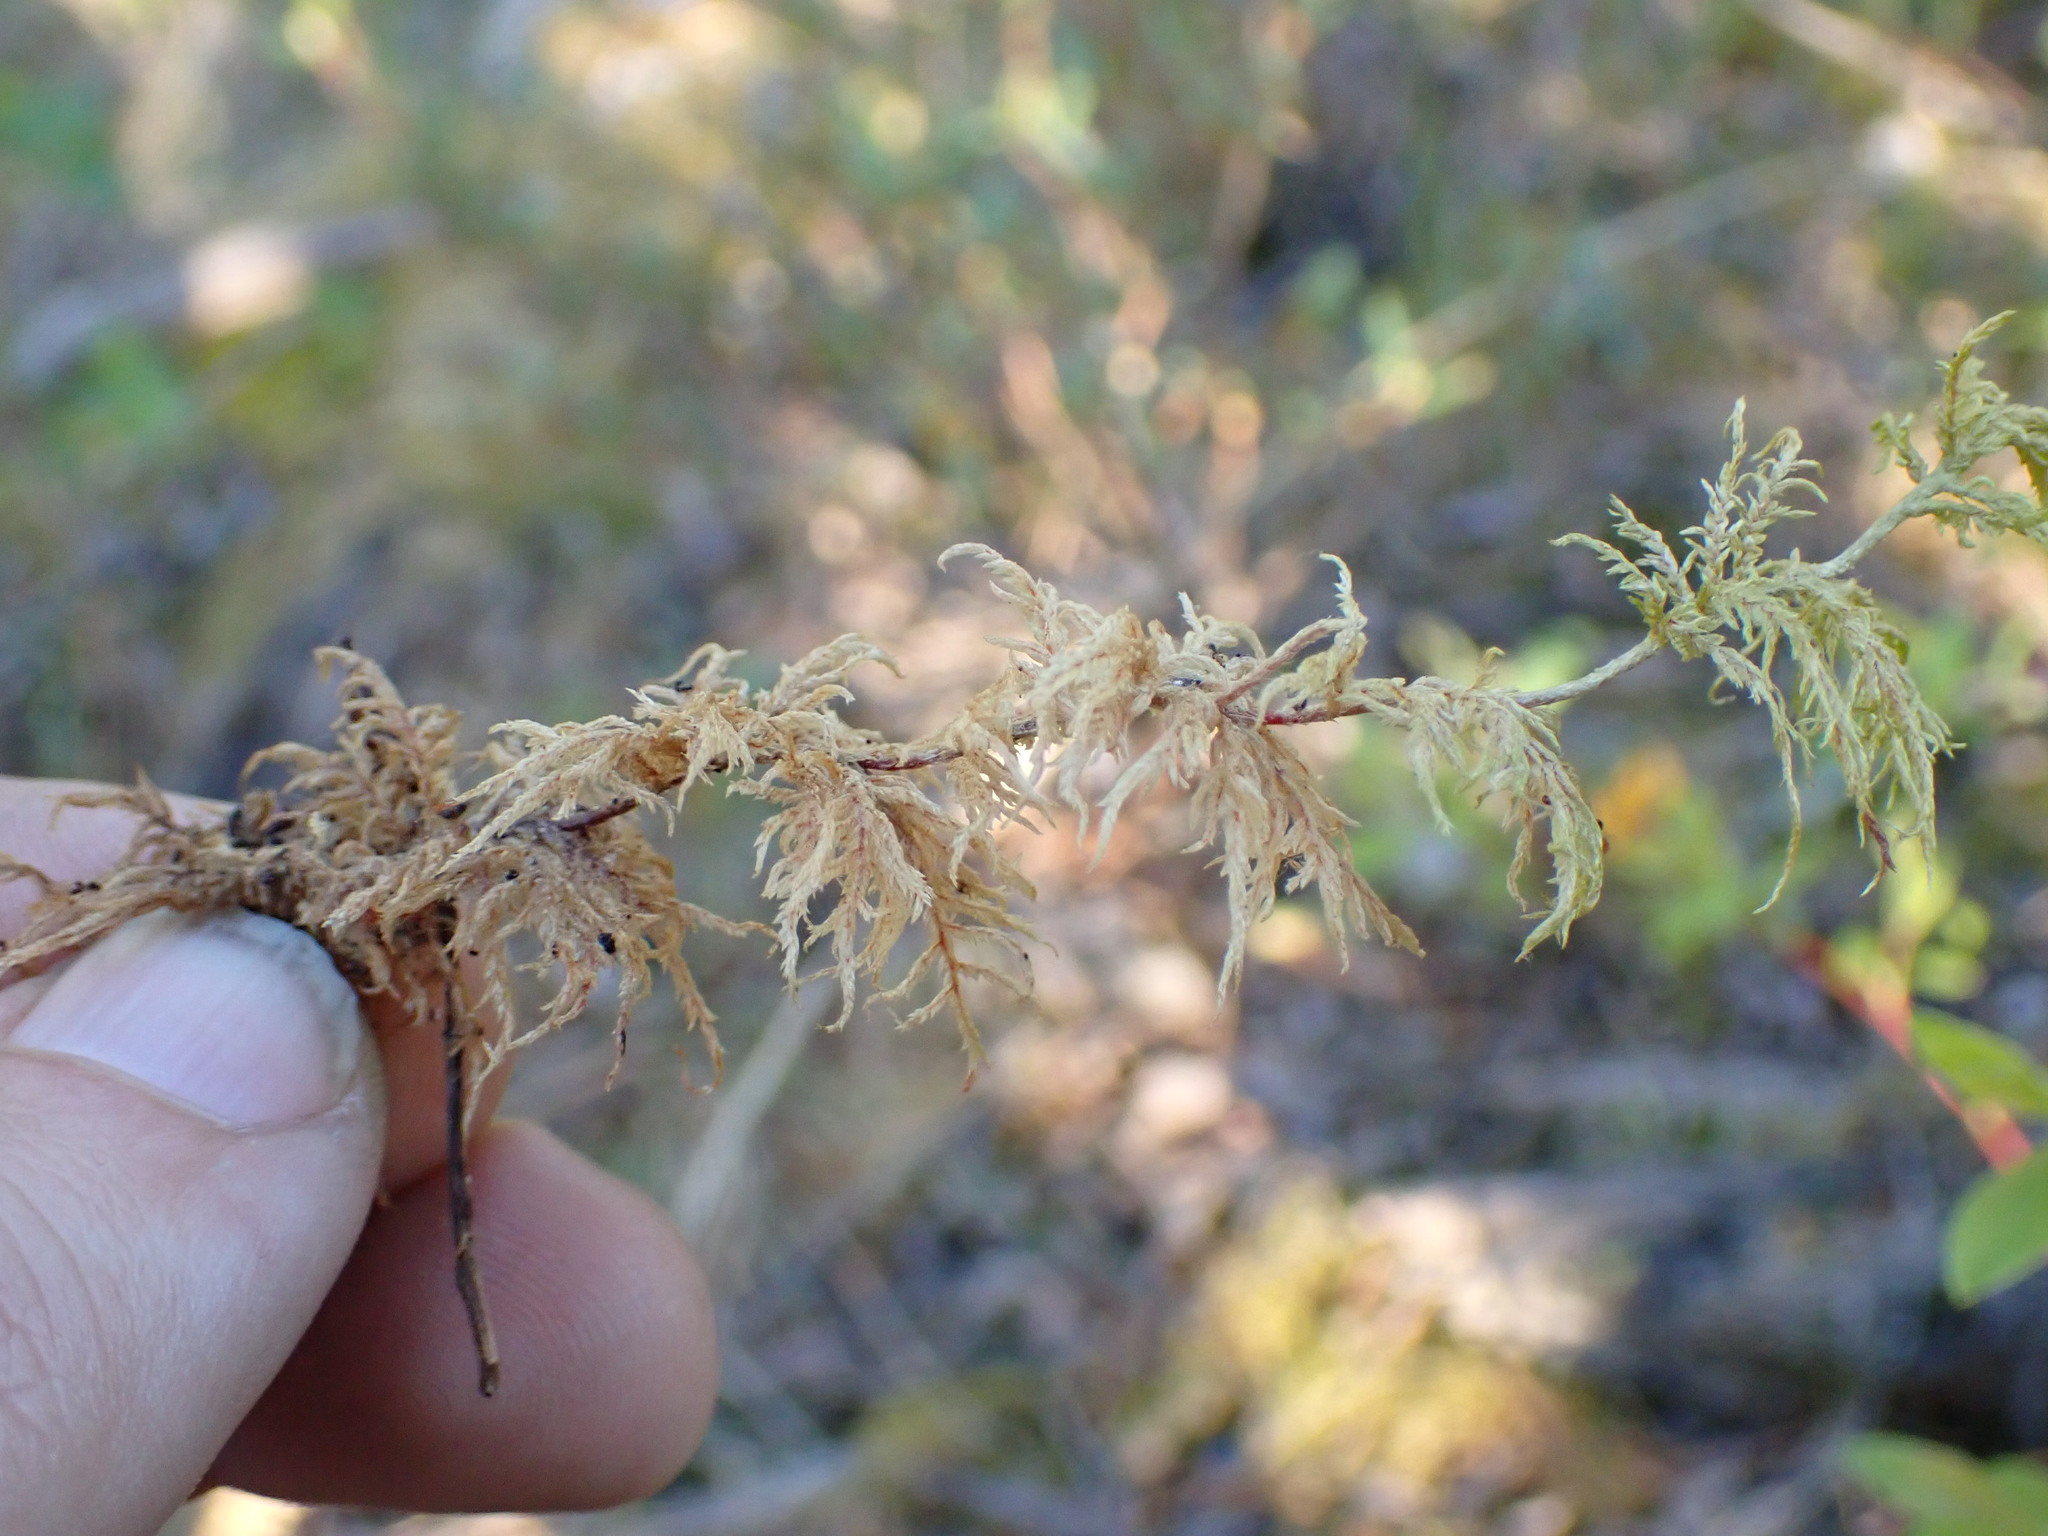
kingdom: Plantae
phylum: Bryophyta
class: Bryopsida
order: Hypnales
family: Hylocomiaceae
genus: Hylocomium
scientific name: Hylocomium splendens
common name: Stairstep moss
